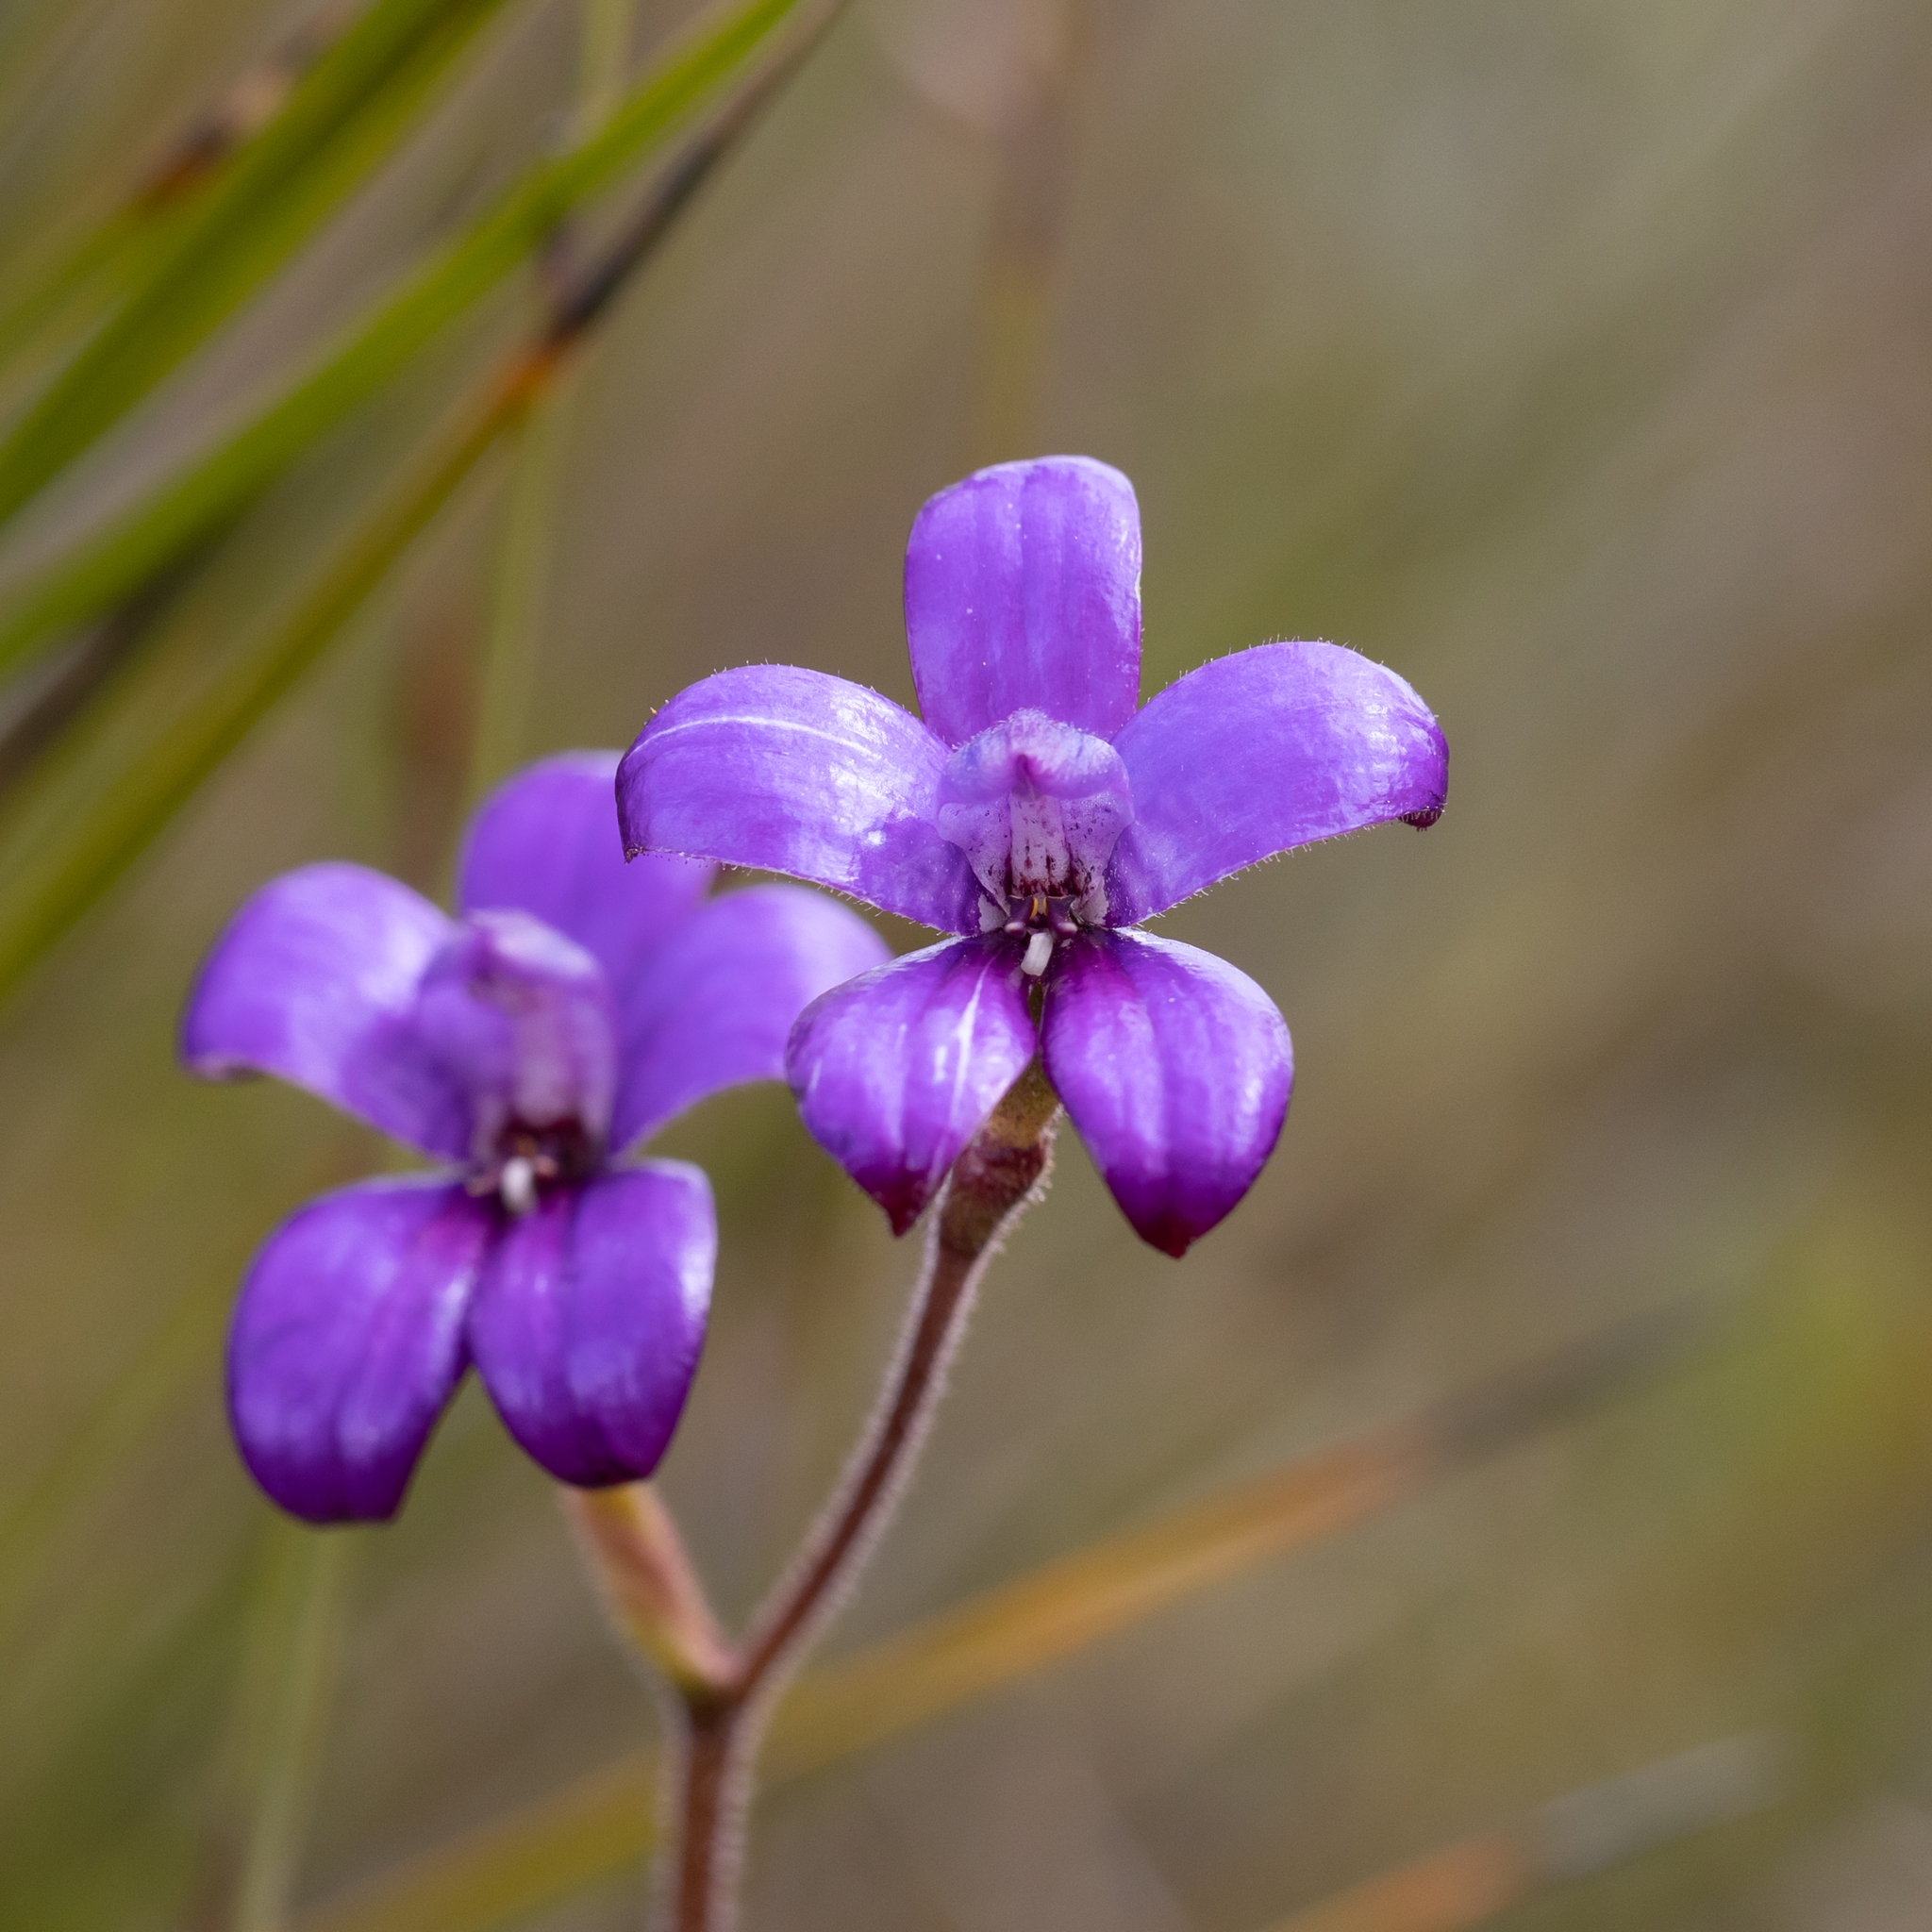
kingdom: Plantae
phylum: Tracheophyta
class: Liliopsida
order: Asparagales
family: Orchidaceae
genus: Caladenia
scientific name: Caladenia brunonis
